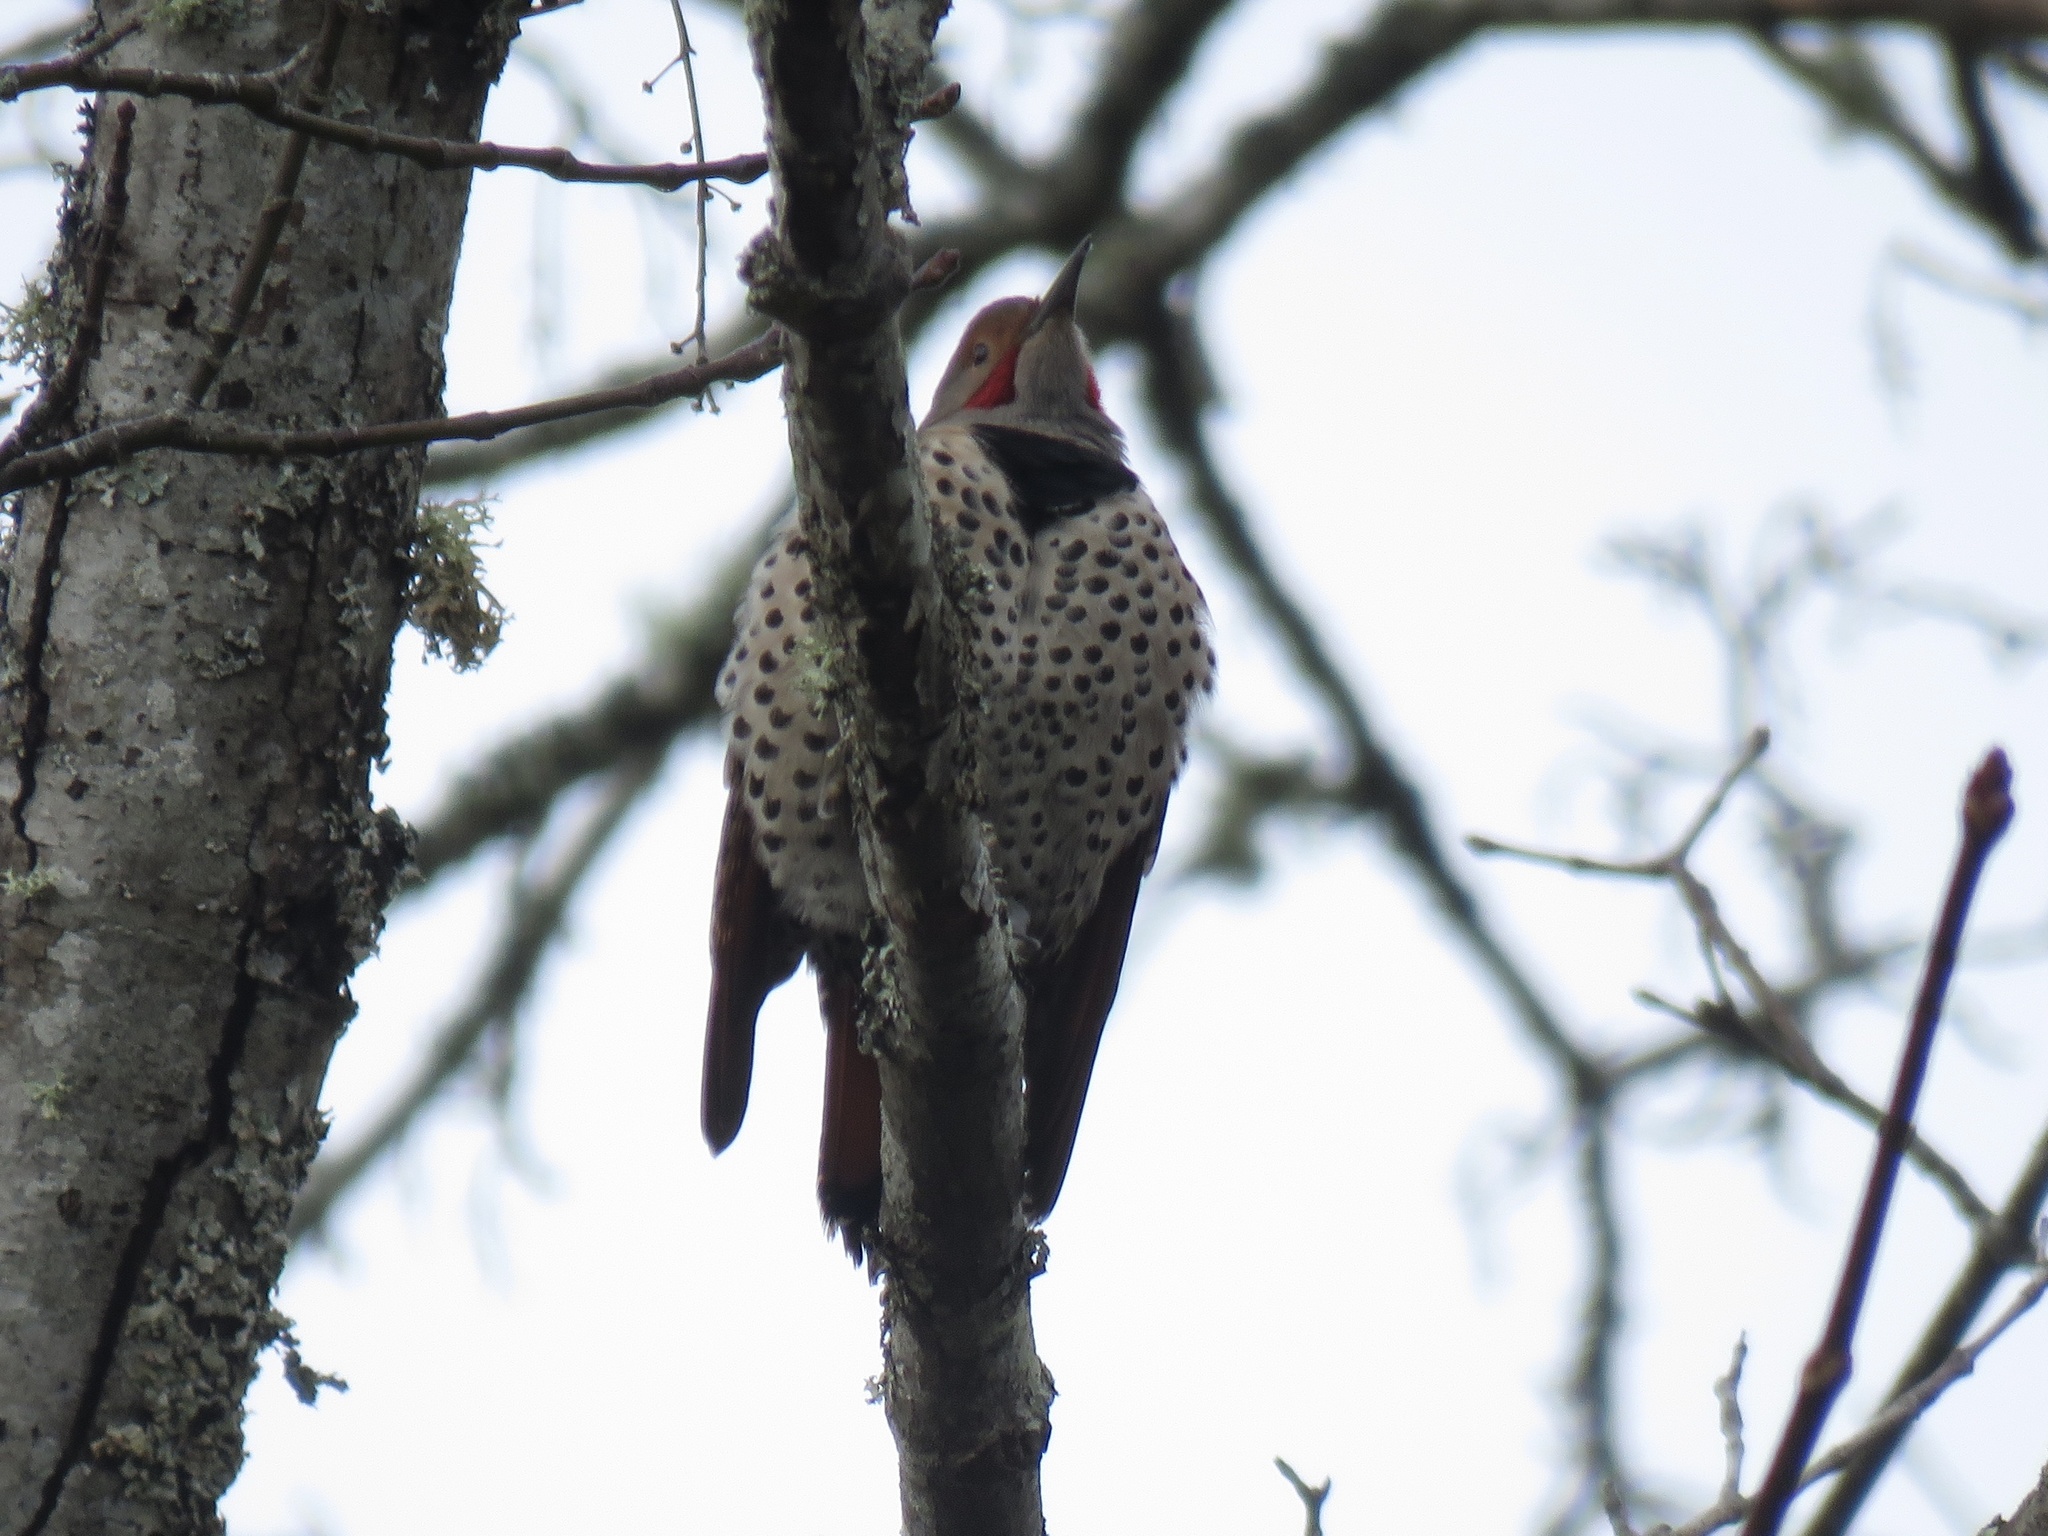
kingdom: Animalia
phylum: Chordata
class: Aves
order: Piciformes
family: Picidae
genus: Colaptes
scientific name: Colaptes auratus
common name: Northern flicker
